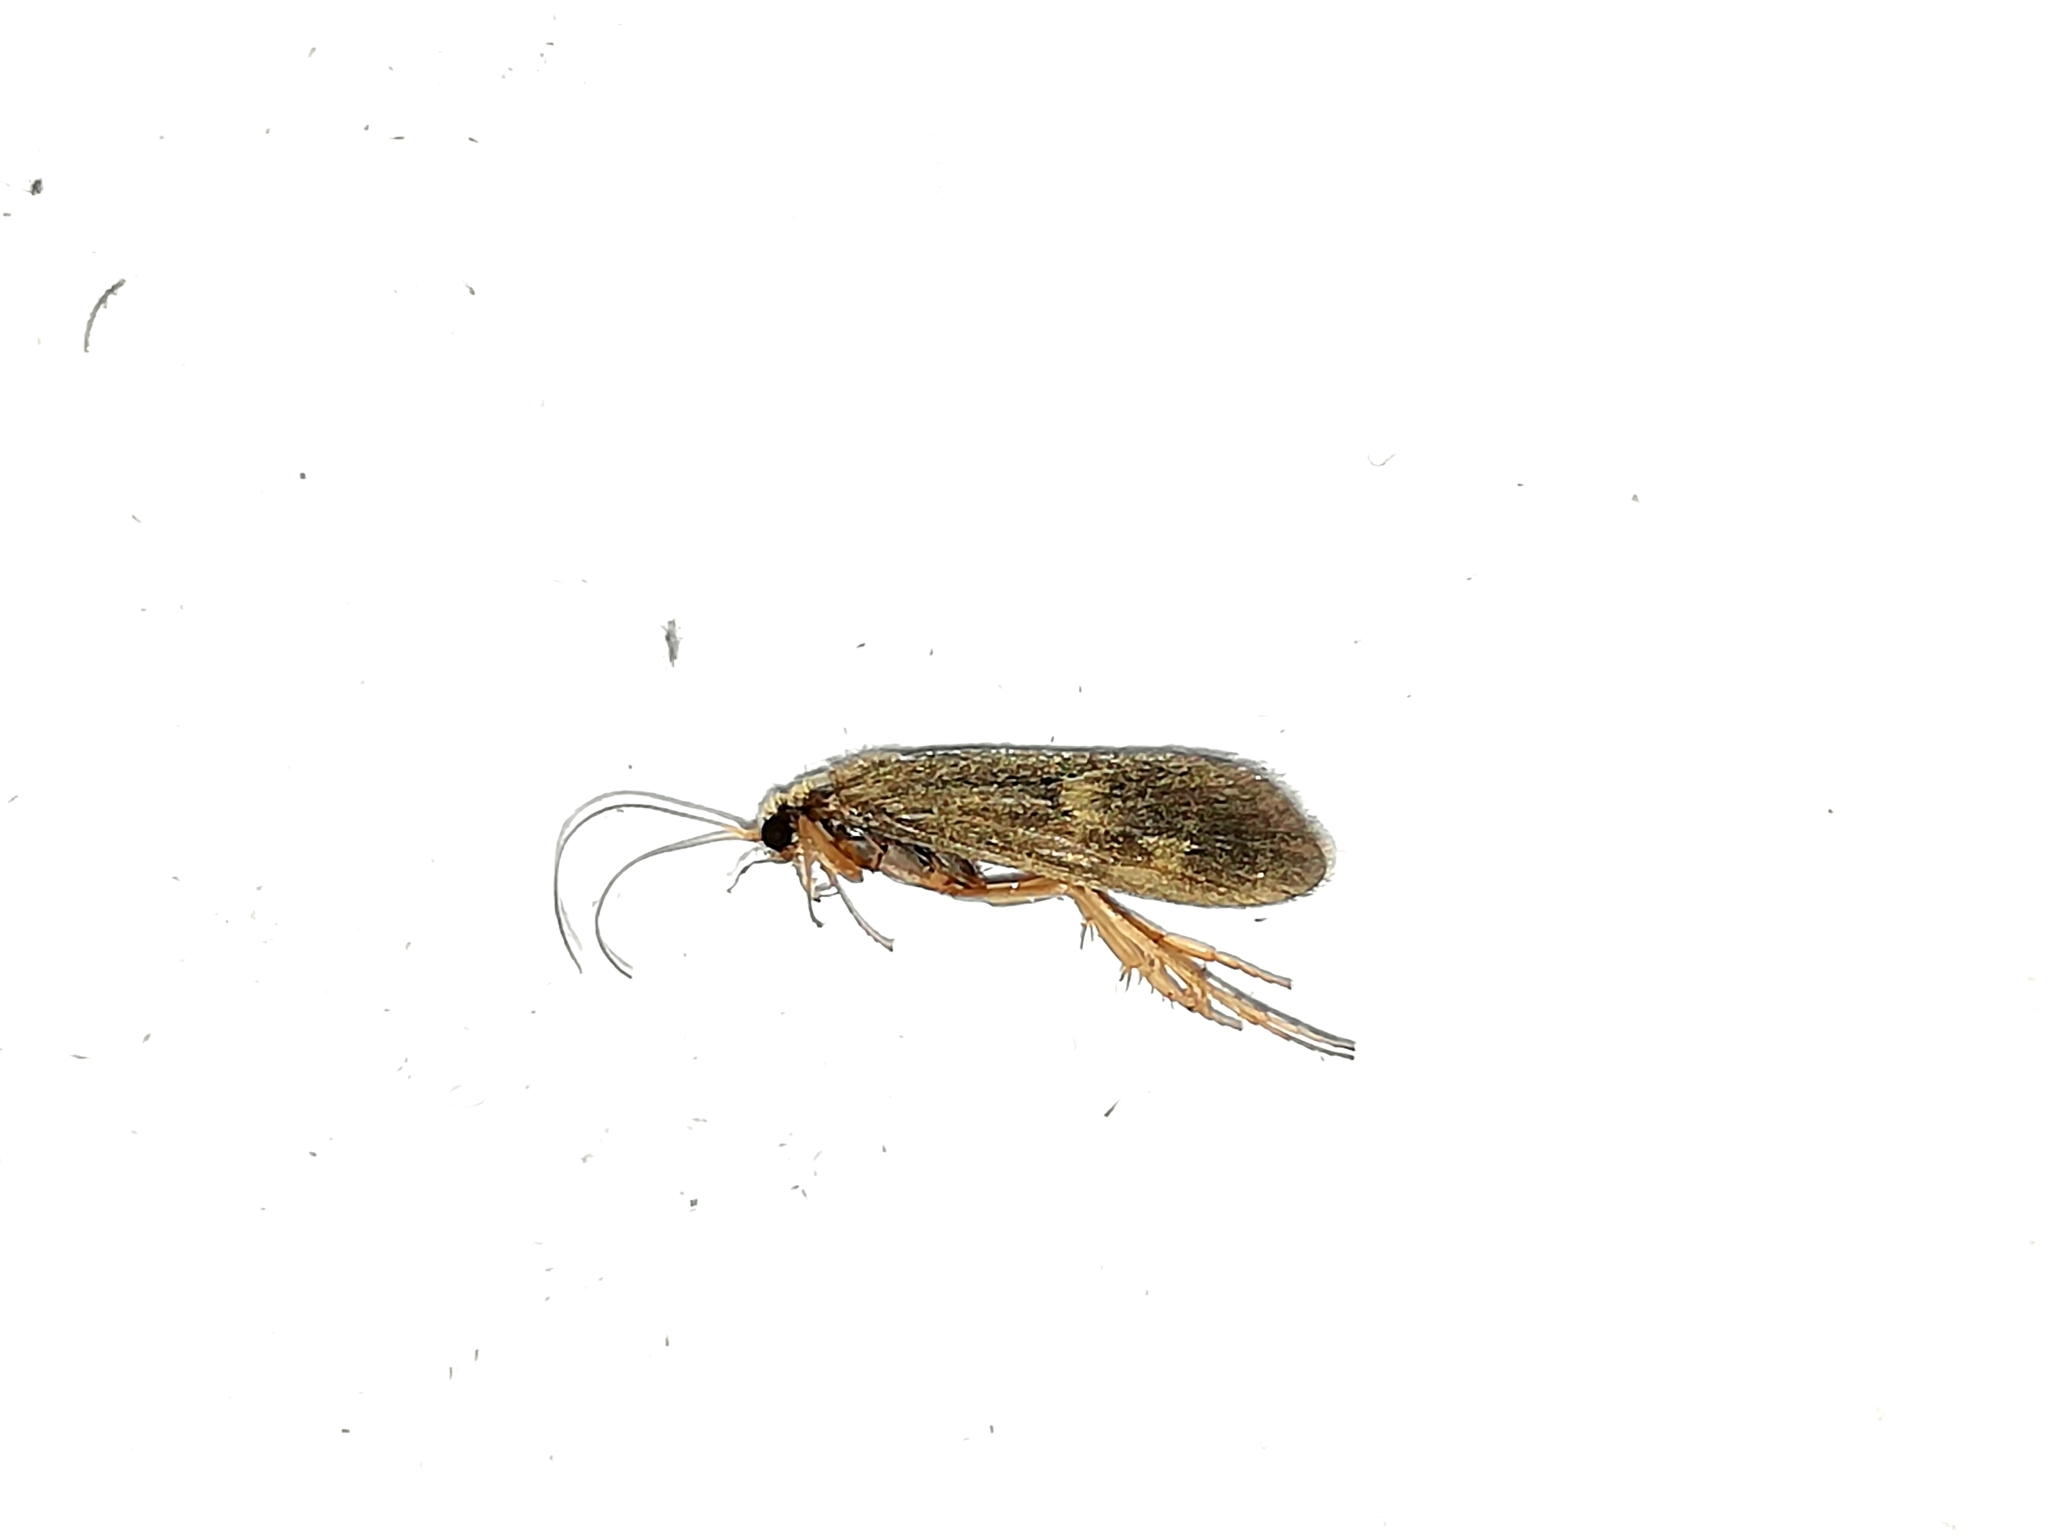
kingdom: Animalia
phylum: Arthropoda
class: Insecta
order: Trichoptera
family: Polycentropodidae
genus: Neureclipsis
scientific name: Neureclipsis bimaculata
